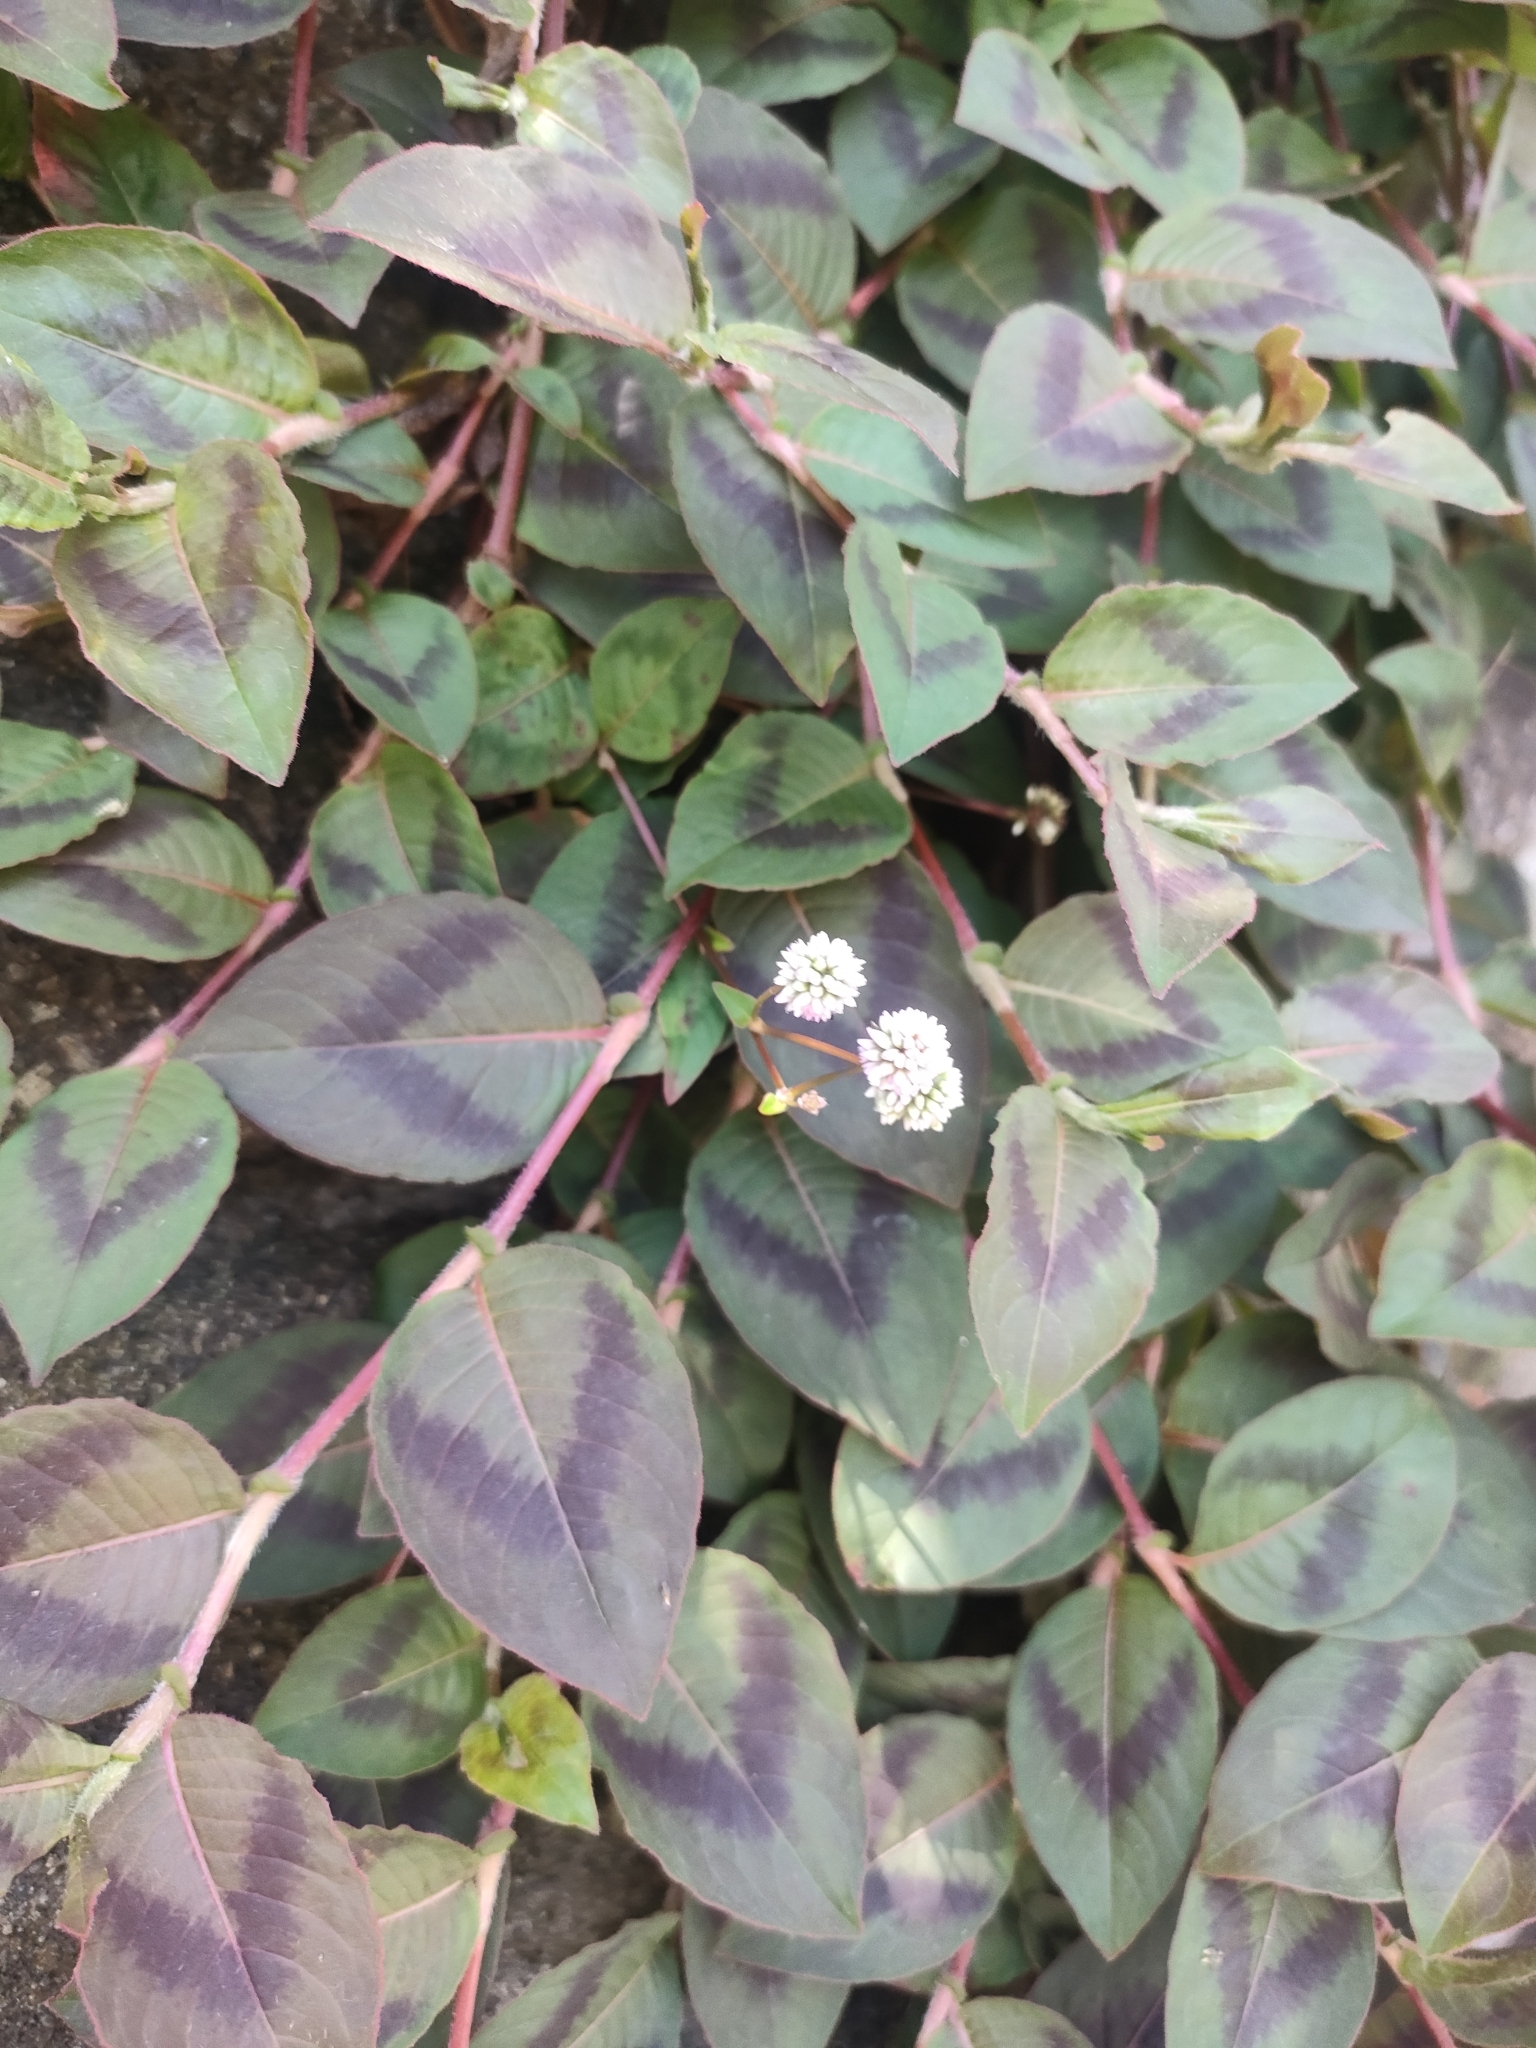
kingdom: Plantae
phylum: Tracheophyta
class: Magnoliopsida
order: Caryophyllales
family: Polygonaceae
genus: Persicaria
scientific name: Persicaria capitata
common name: Pinkhead smartweed
